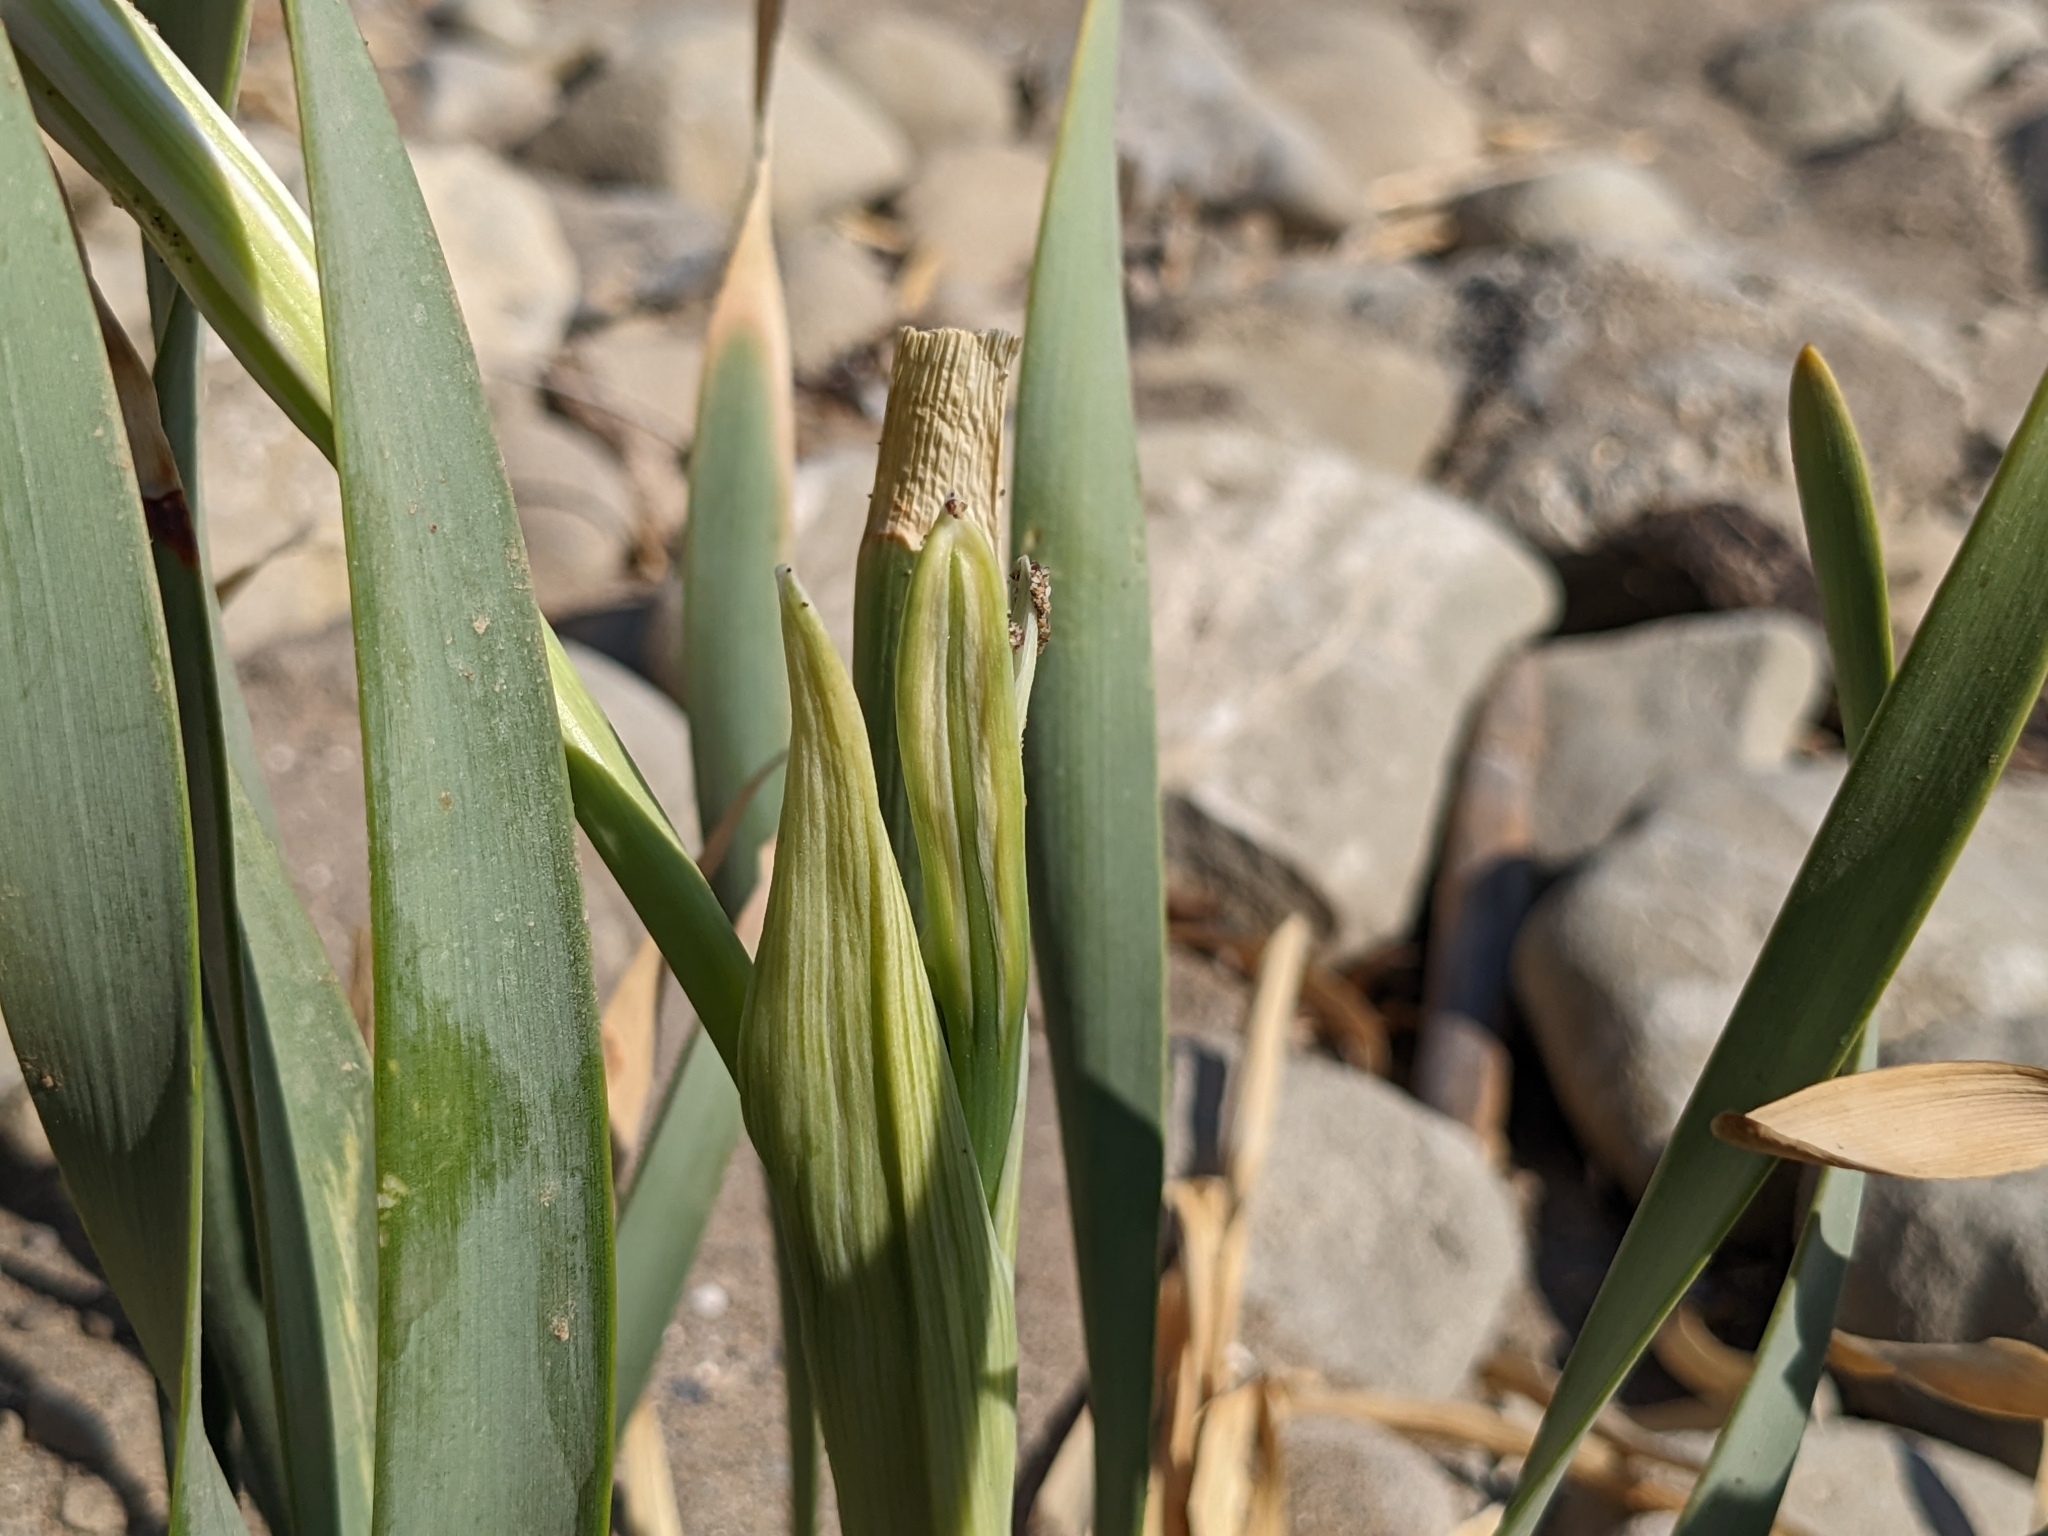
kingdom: Plantae
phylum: Tracheophyta
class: Liliopsida
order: Asparagales
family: Amaryllidaceae
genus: Pancratium
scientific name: Pancratium maritimum
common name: Sea-daffodil
